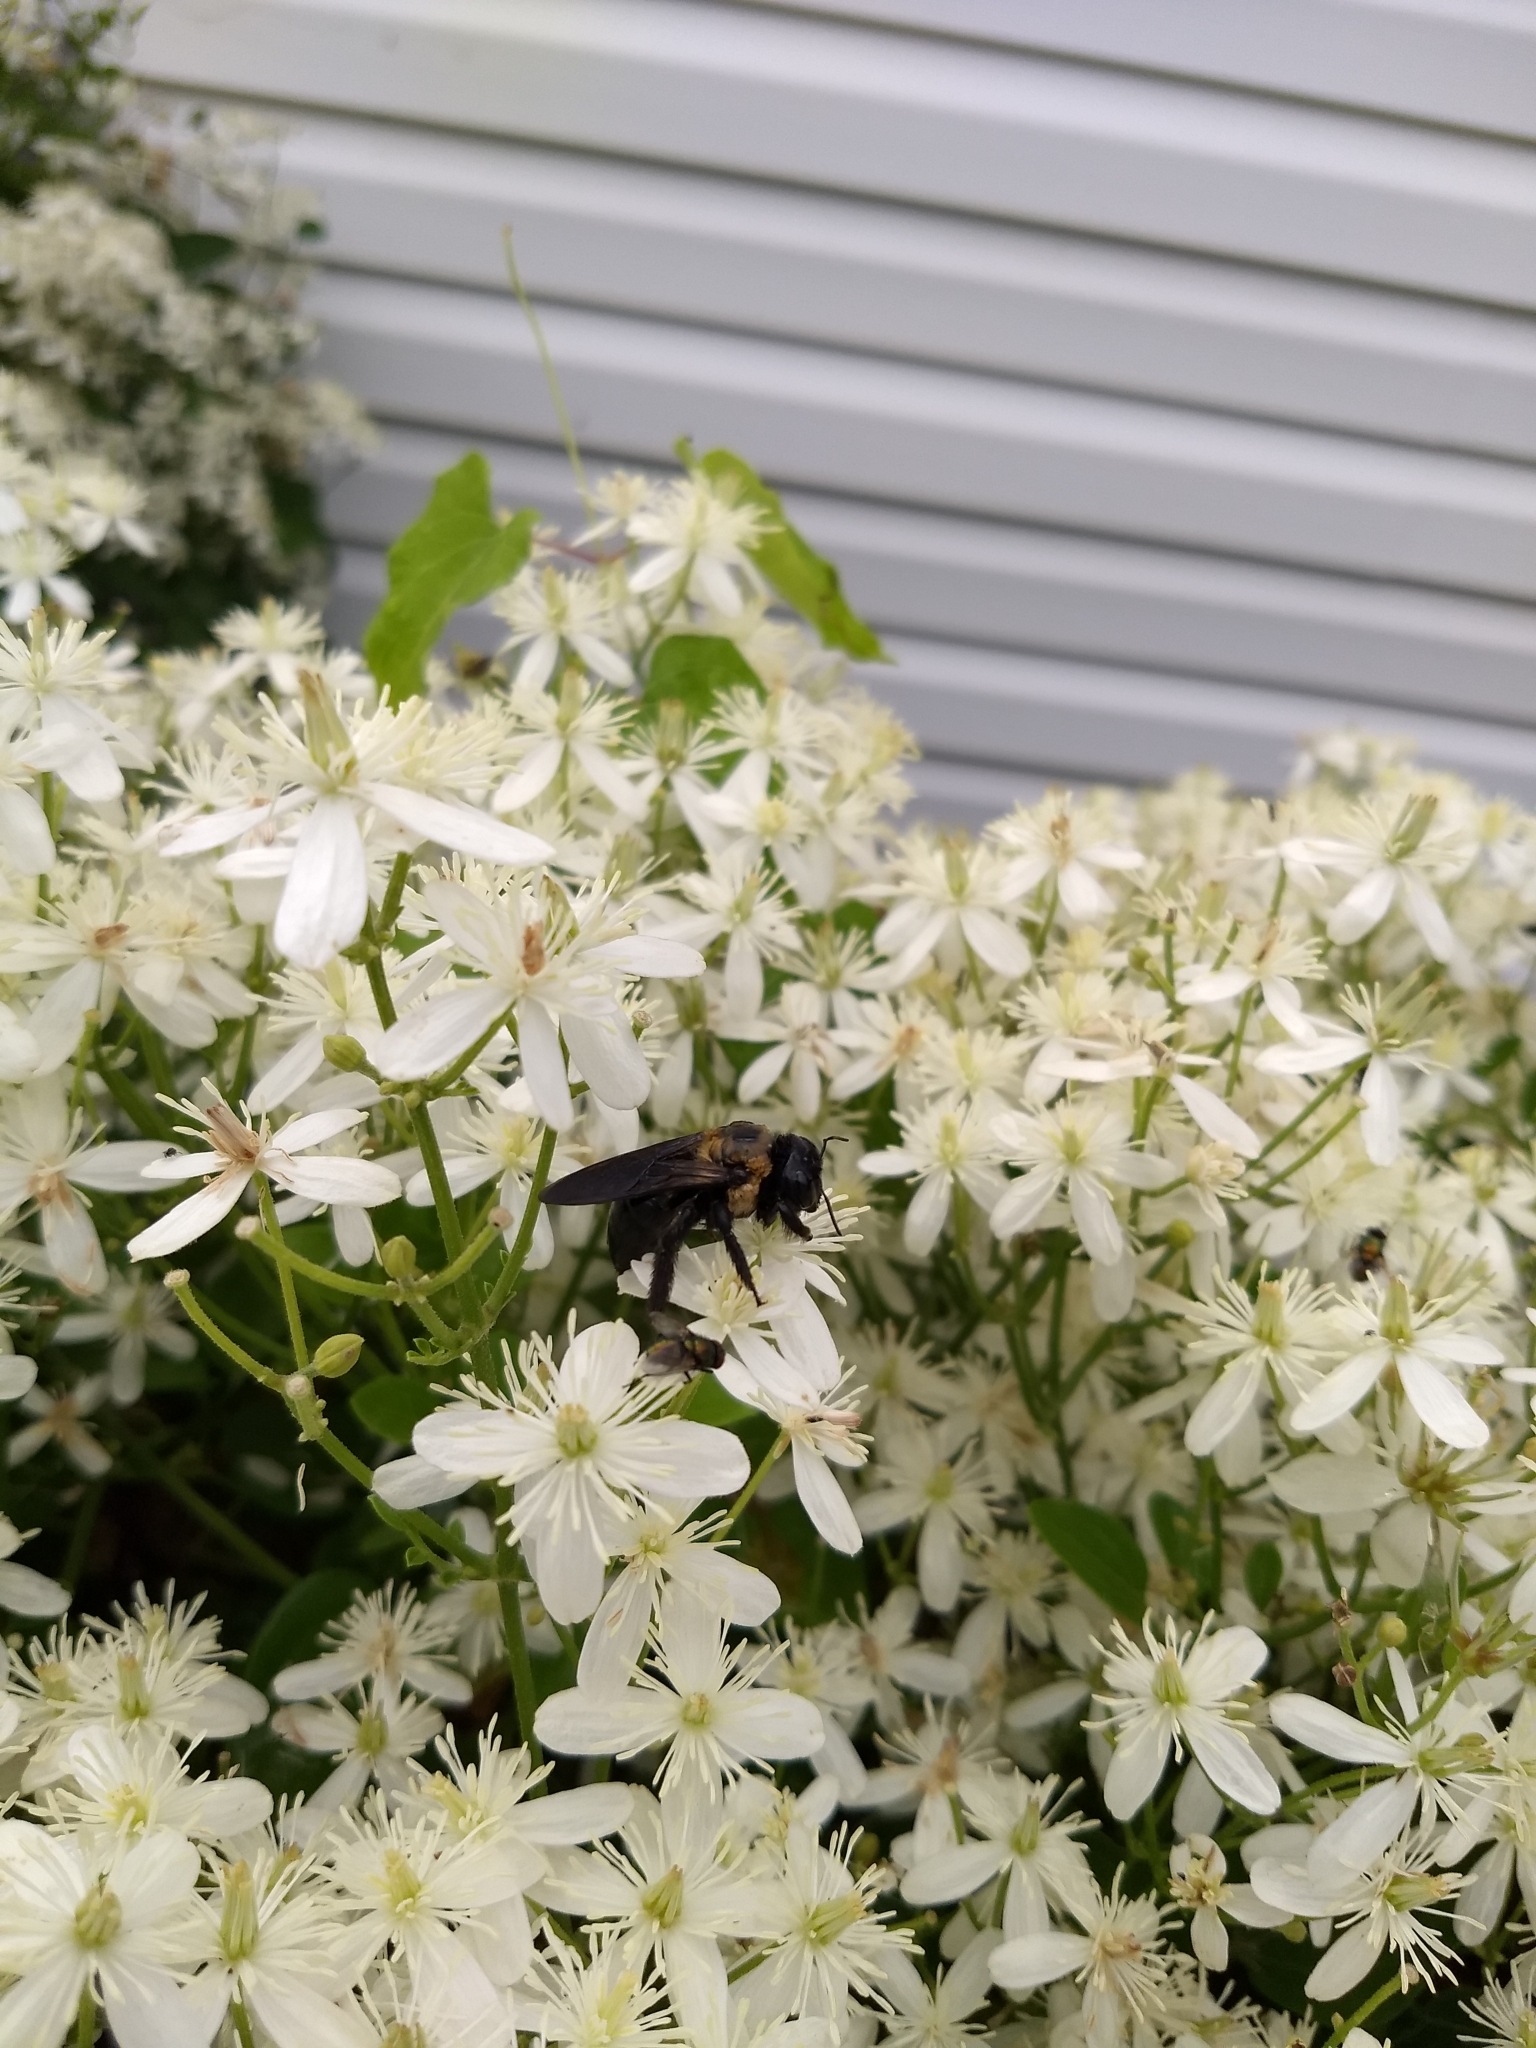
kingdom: Animalia
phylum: Arthropoda
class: Insecta
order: Hymenoptera
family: Apidae
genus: Xylocopa
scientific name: Xylocopa virginica
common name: Carpenter bee
